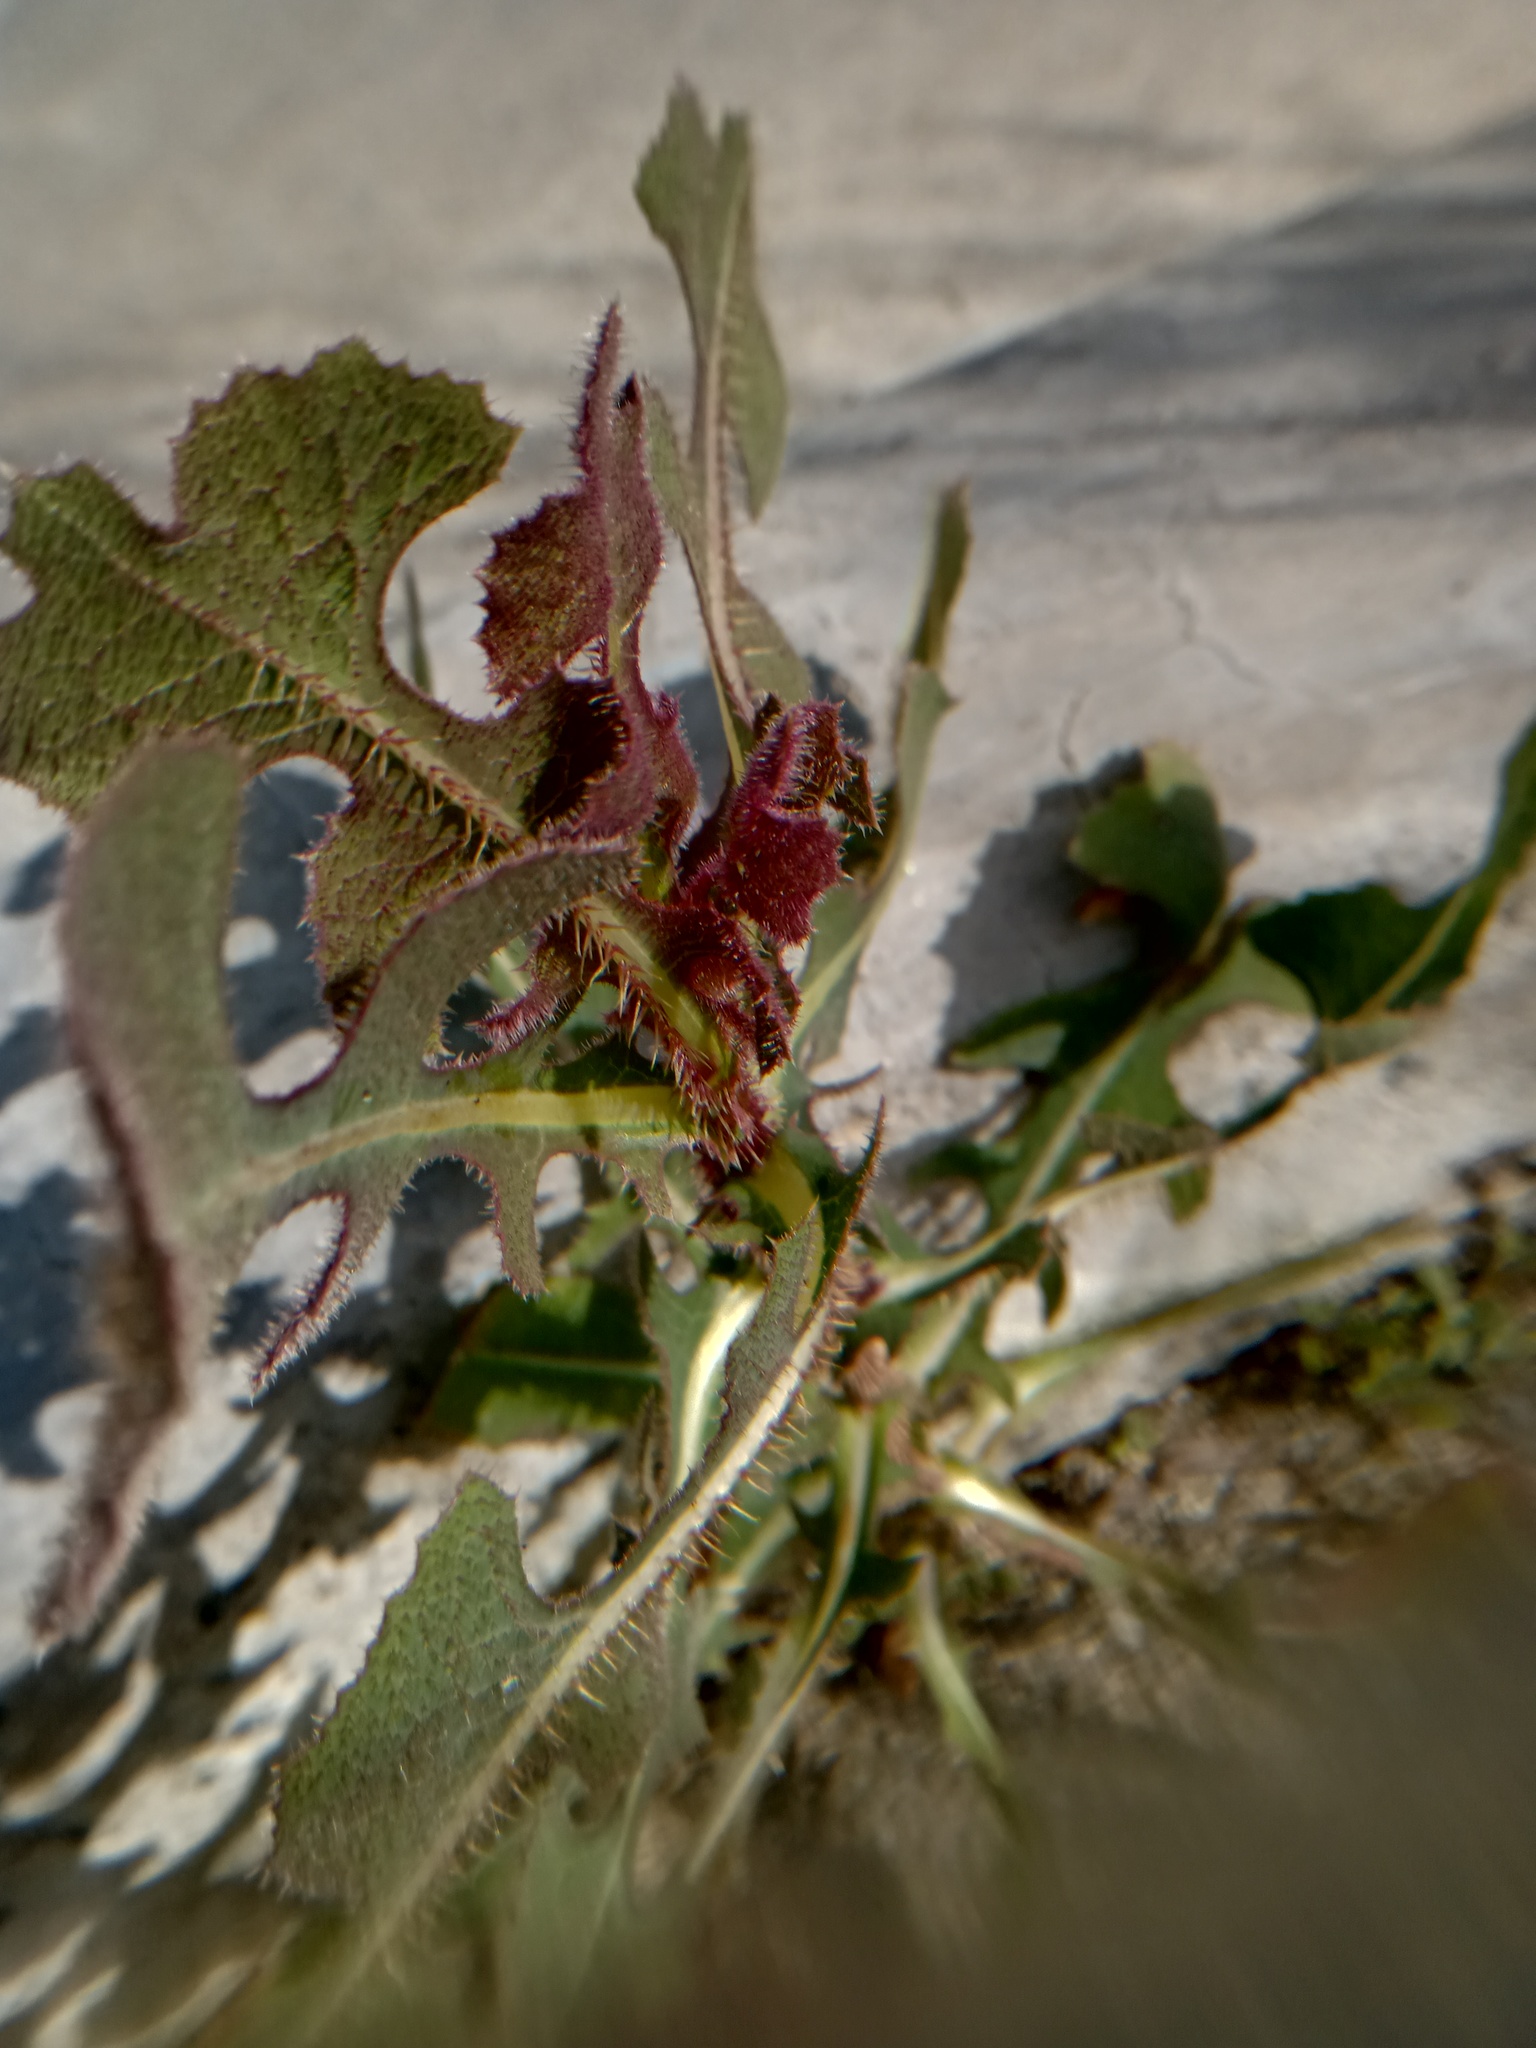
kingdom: Plantae
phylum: Tracheophyta
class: Magnoliopsida
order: Asterales
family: Asteraceae
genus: Lactuca
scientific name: Lactuca serriola
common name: Prickly lettuce
